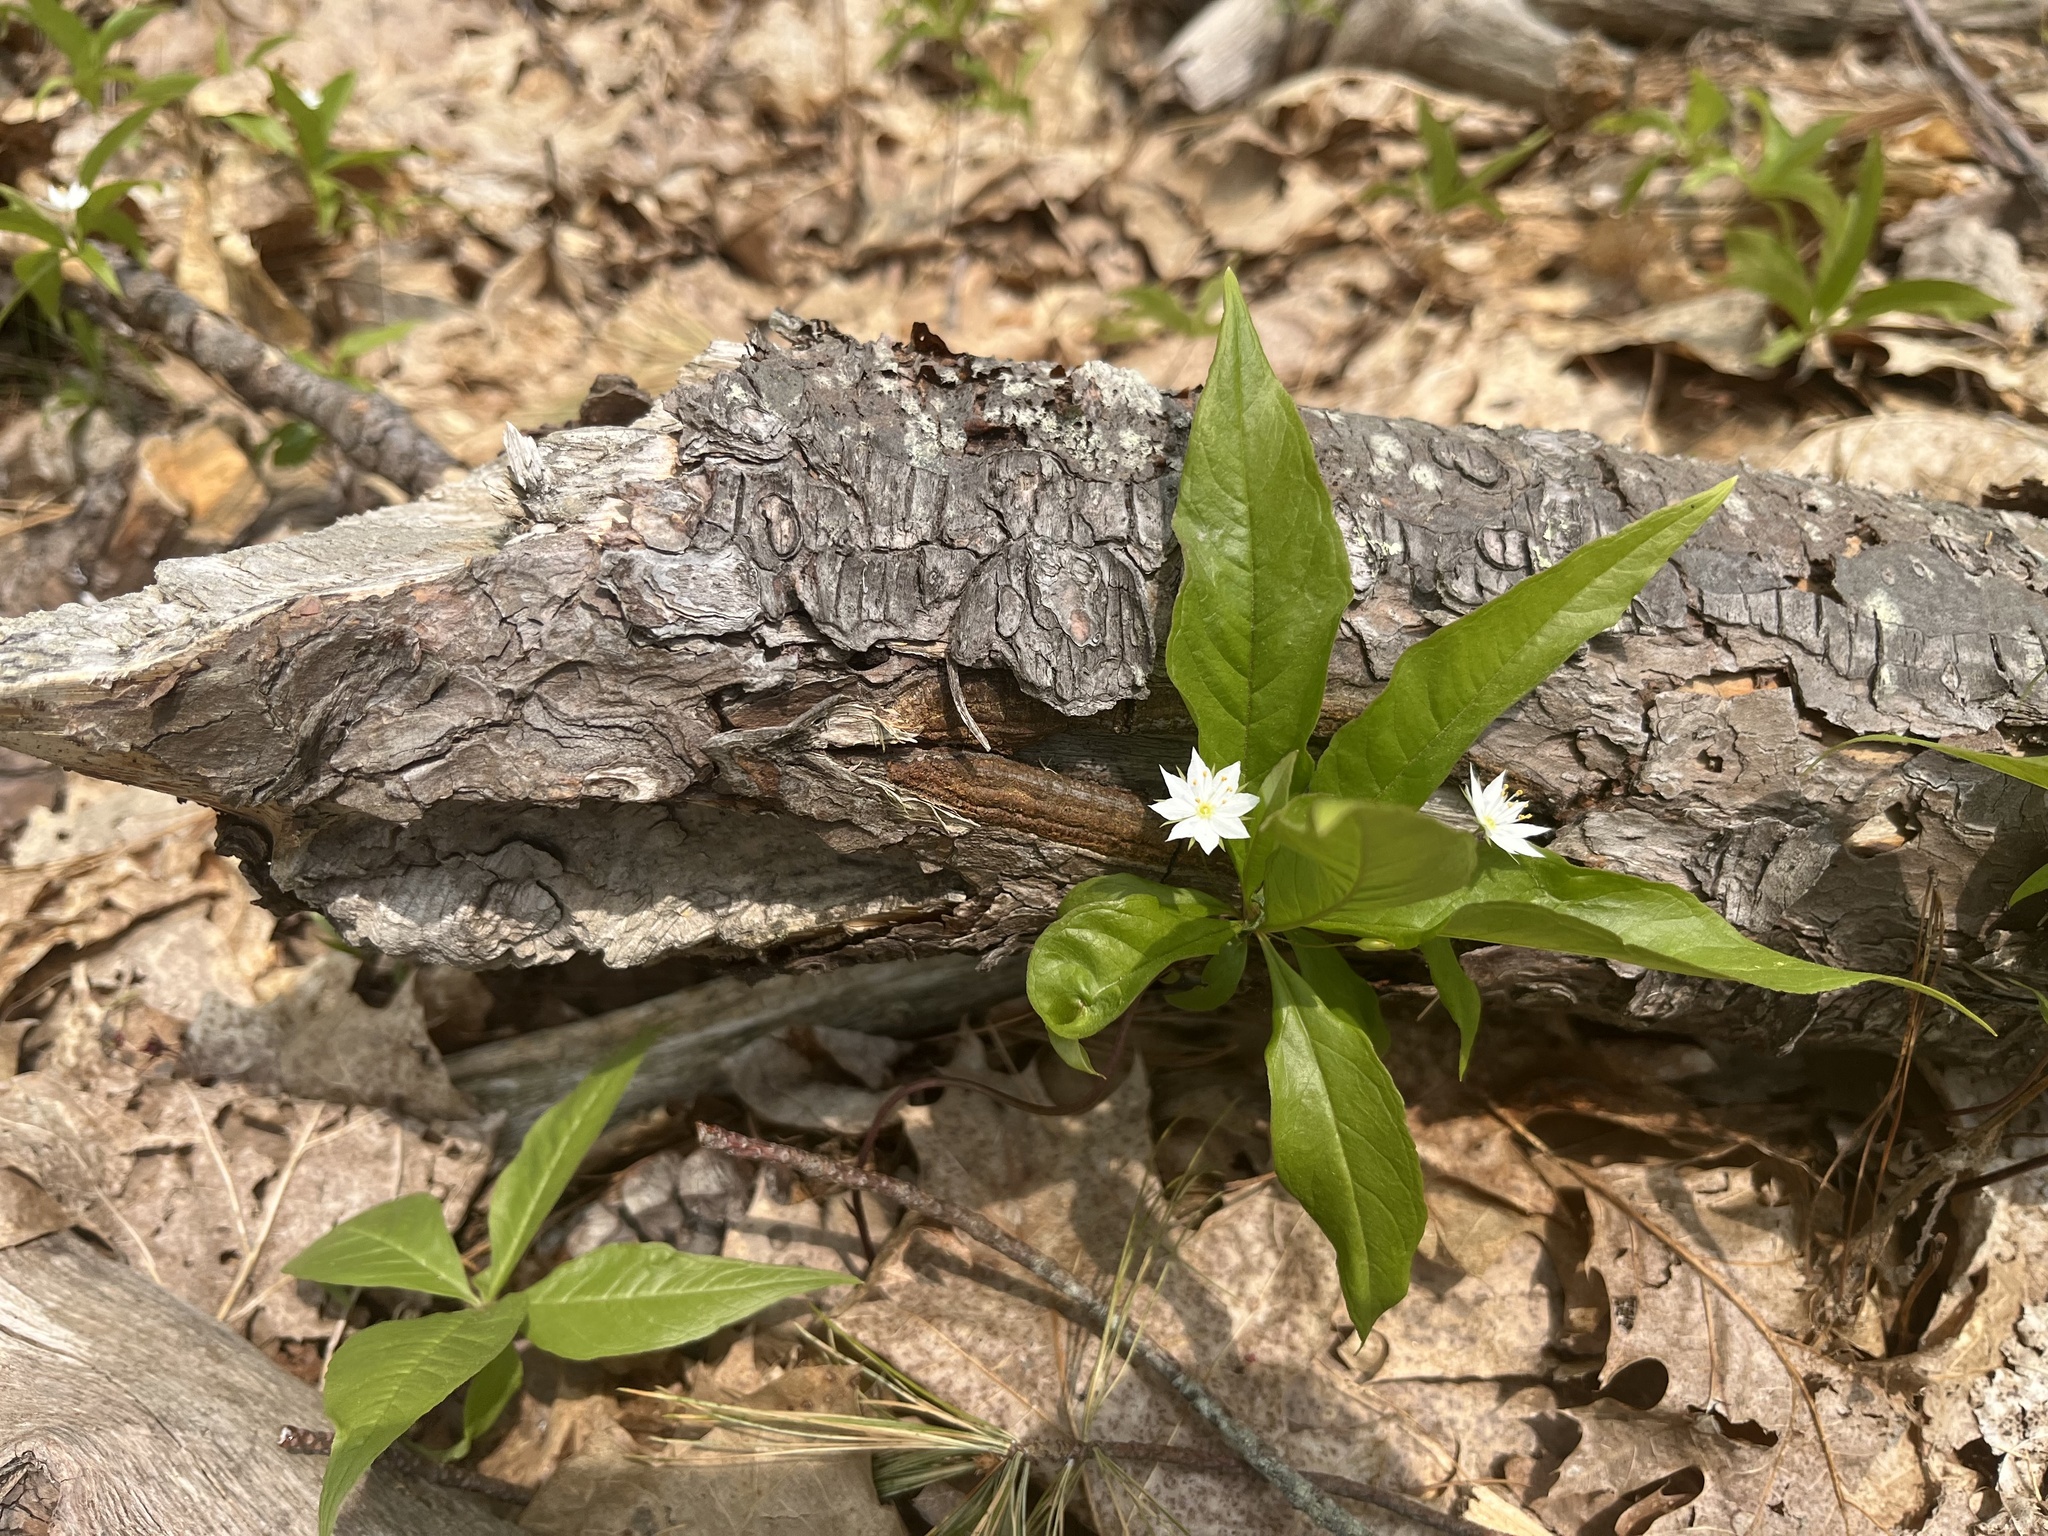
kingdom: Plantae
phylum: Tracheophyta
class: Magnoliopsida
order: Ericales
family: Primulaceae
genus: Lysimachia
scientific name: Lysimachia borealis
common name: American starflower
